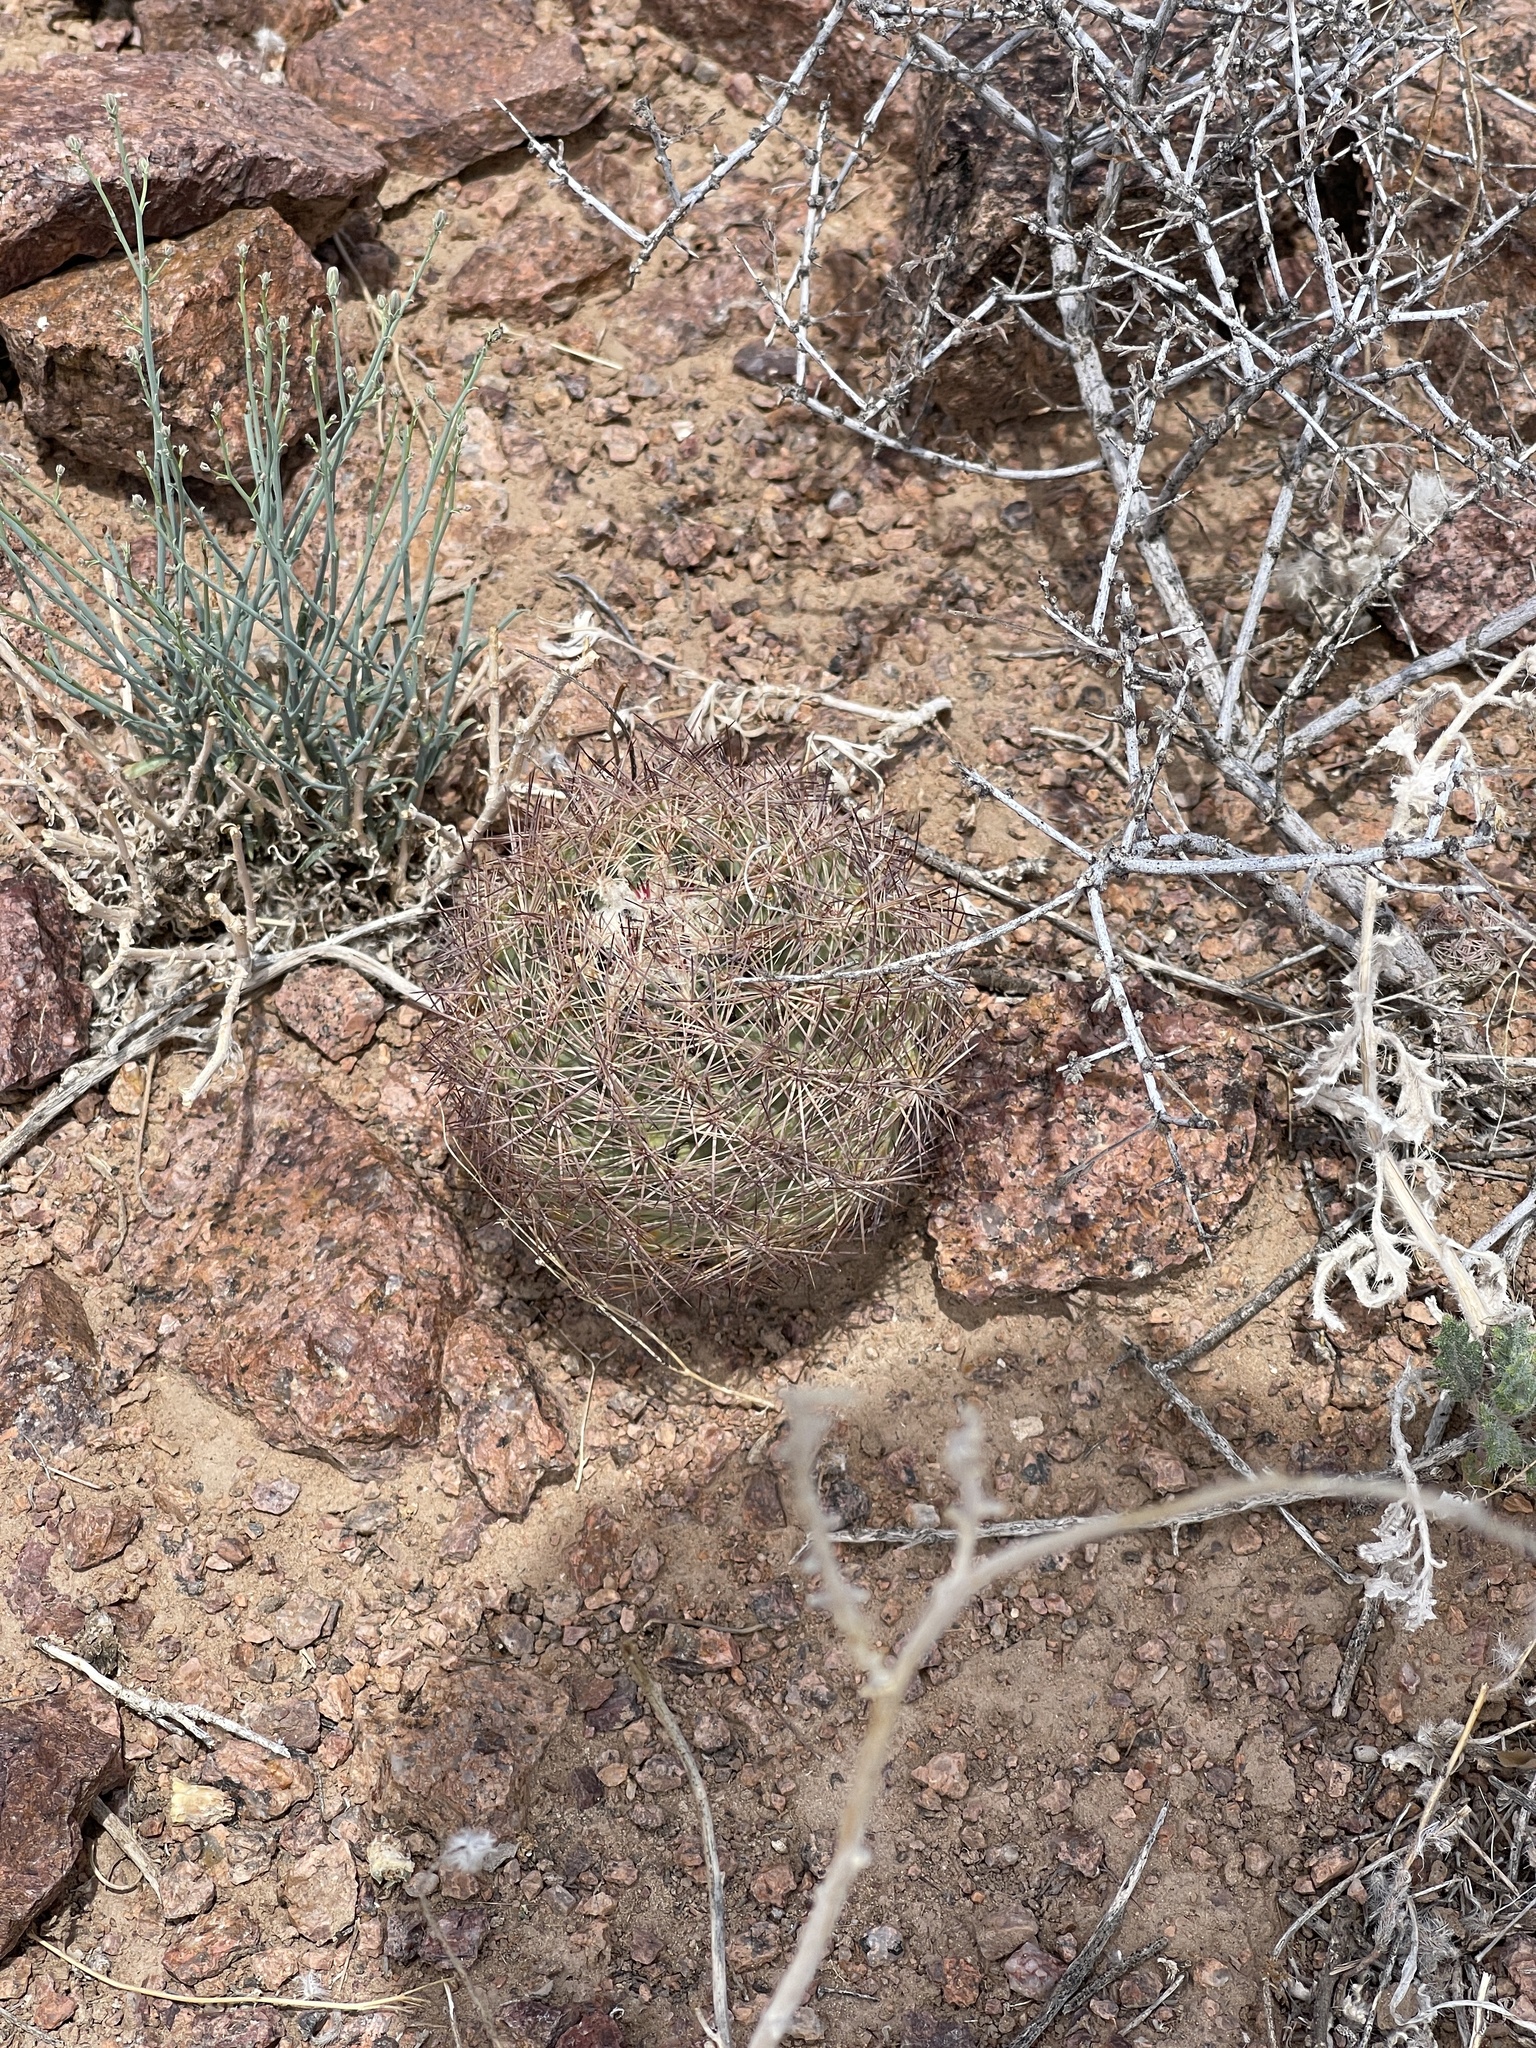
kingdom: Plantae
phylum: Tracheophyta
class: Magnoliopsida
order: Caryophyllales
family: Cactaceae
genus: Sclerocactus
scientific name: Sclerocactus intertextus
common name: White fish-hook cactus
